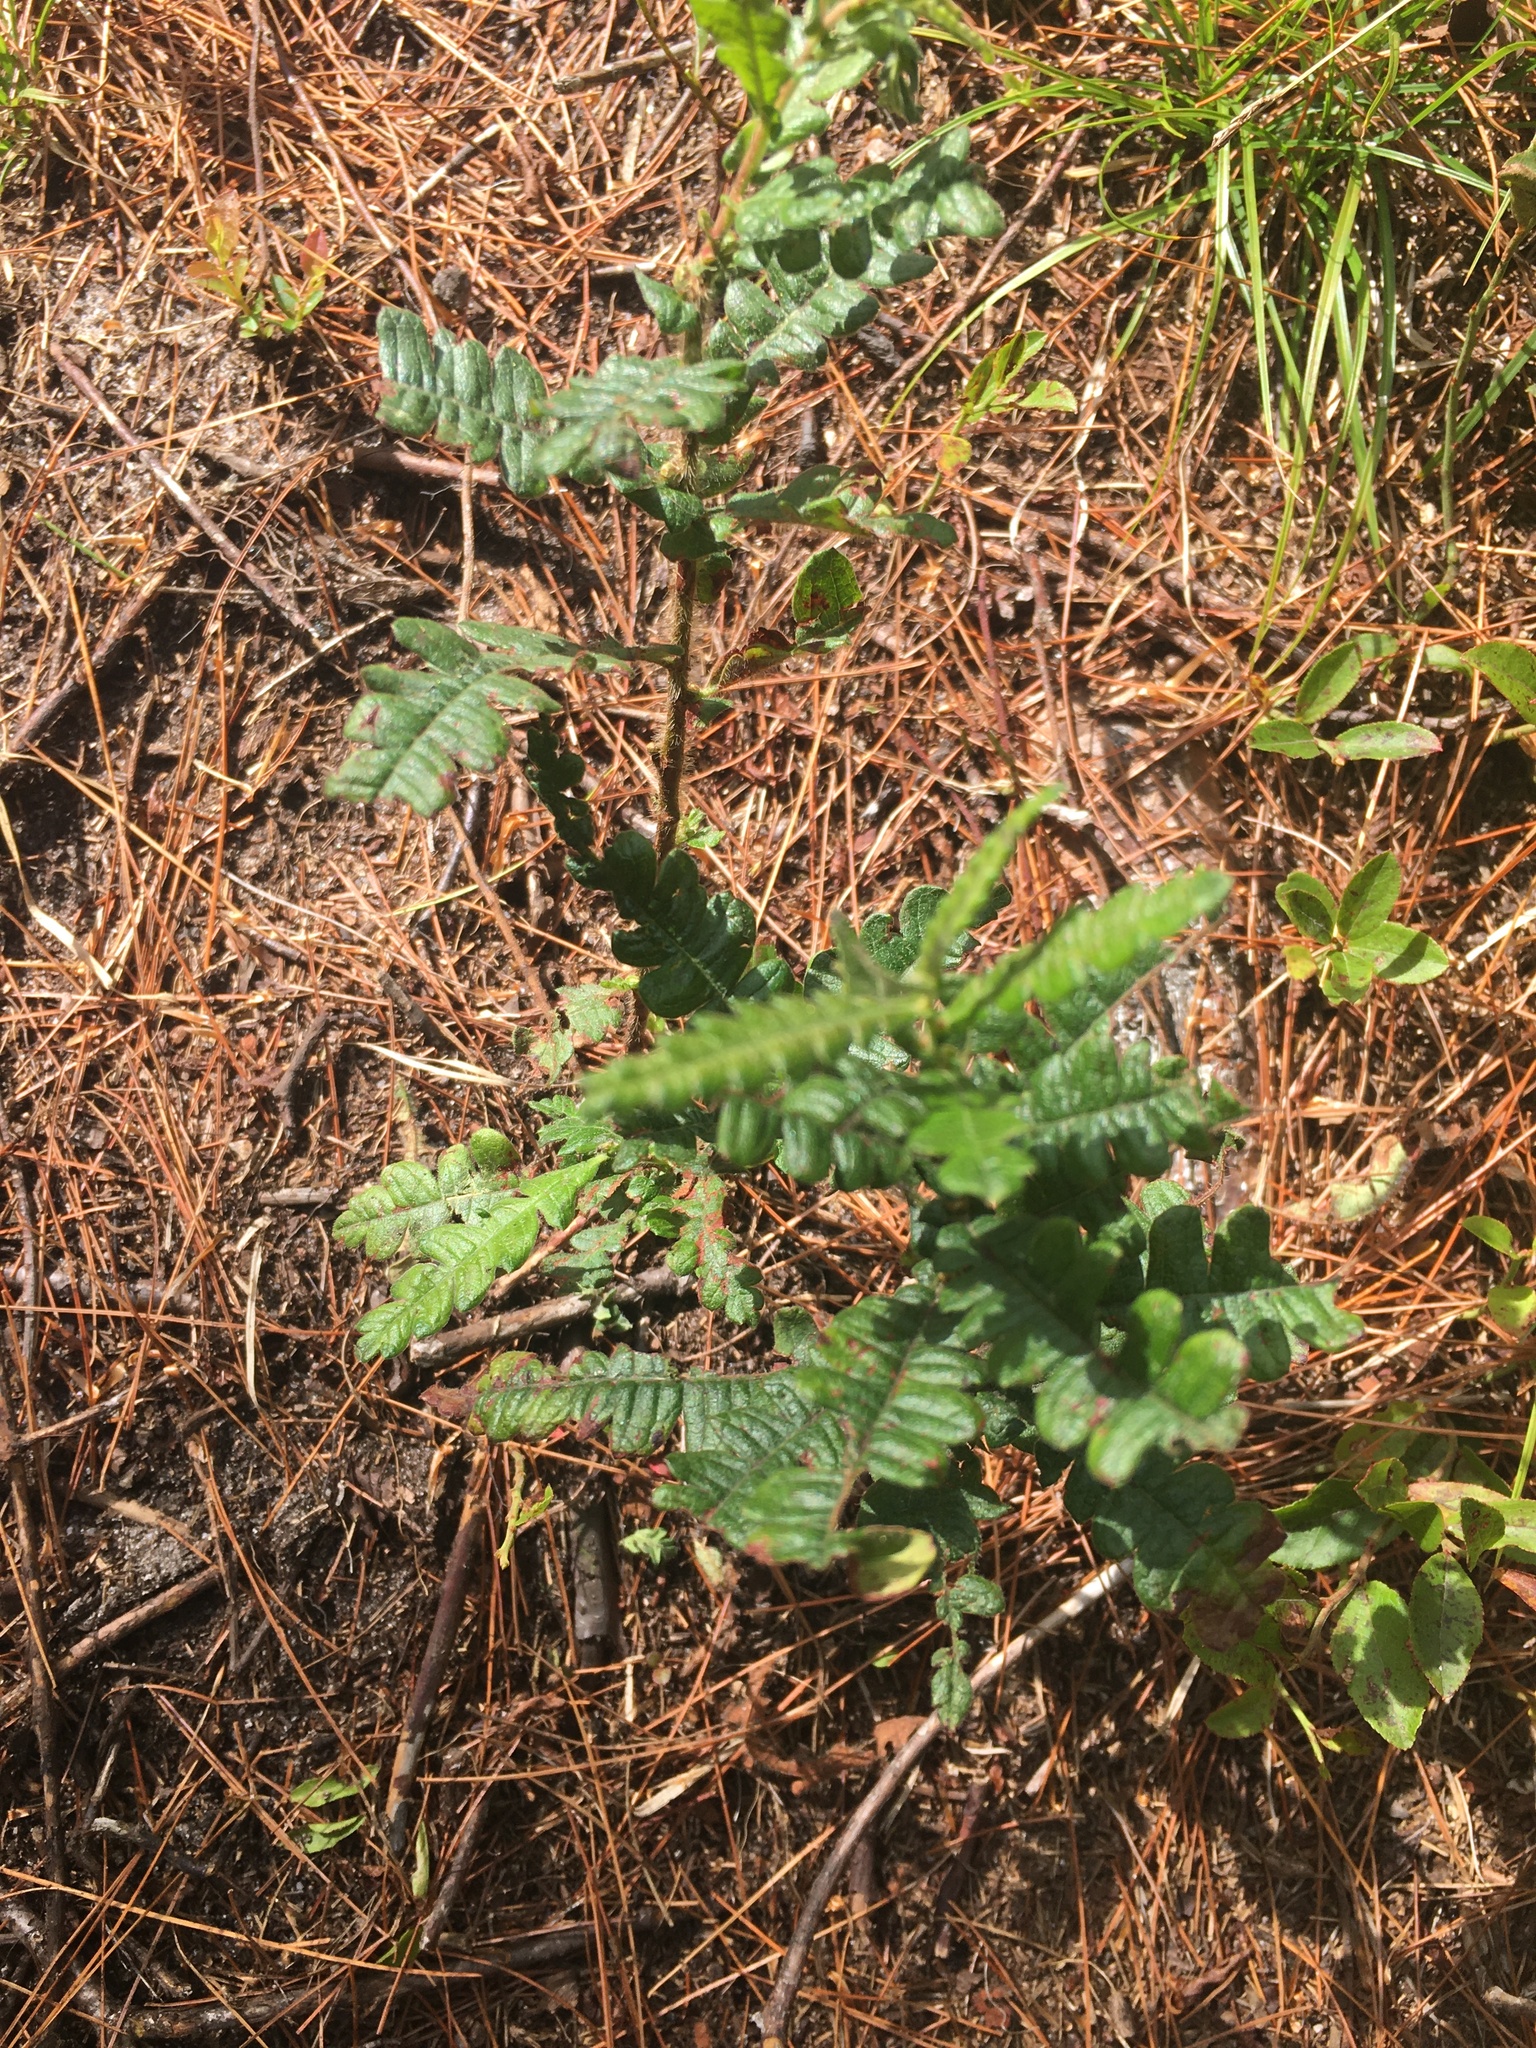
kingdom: Plantae
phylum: Tracheophyta
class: Magnoliopsida
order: Fagales
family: Myricaceae
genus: Comptonia
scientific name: Comptonia peregrina
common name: Sweet-fern
